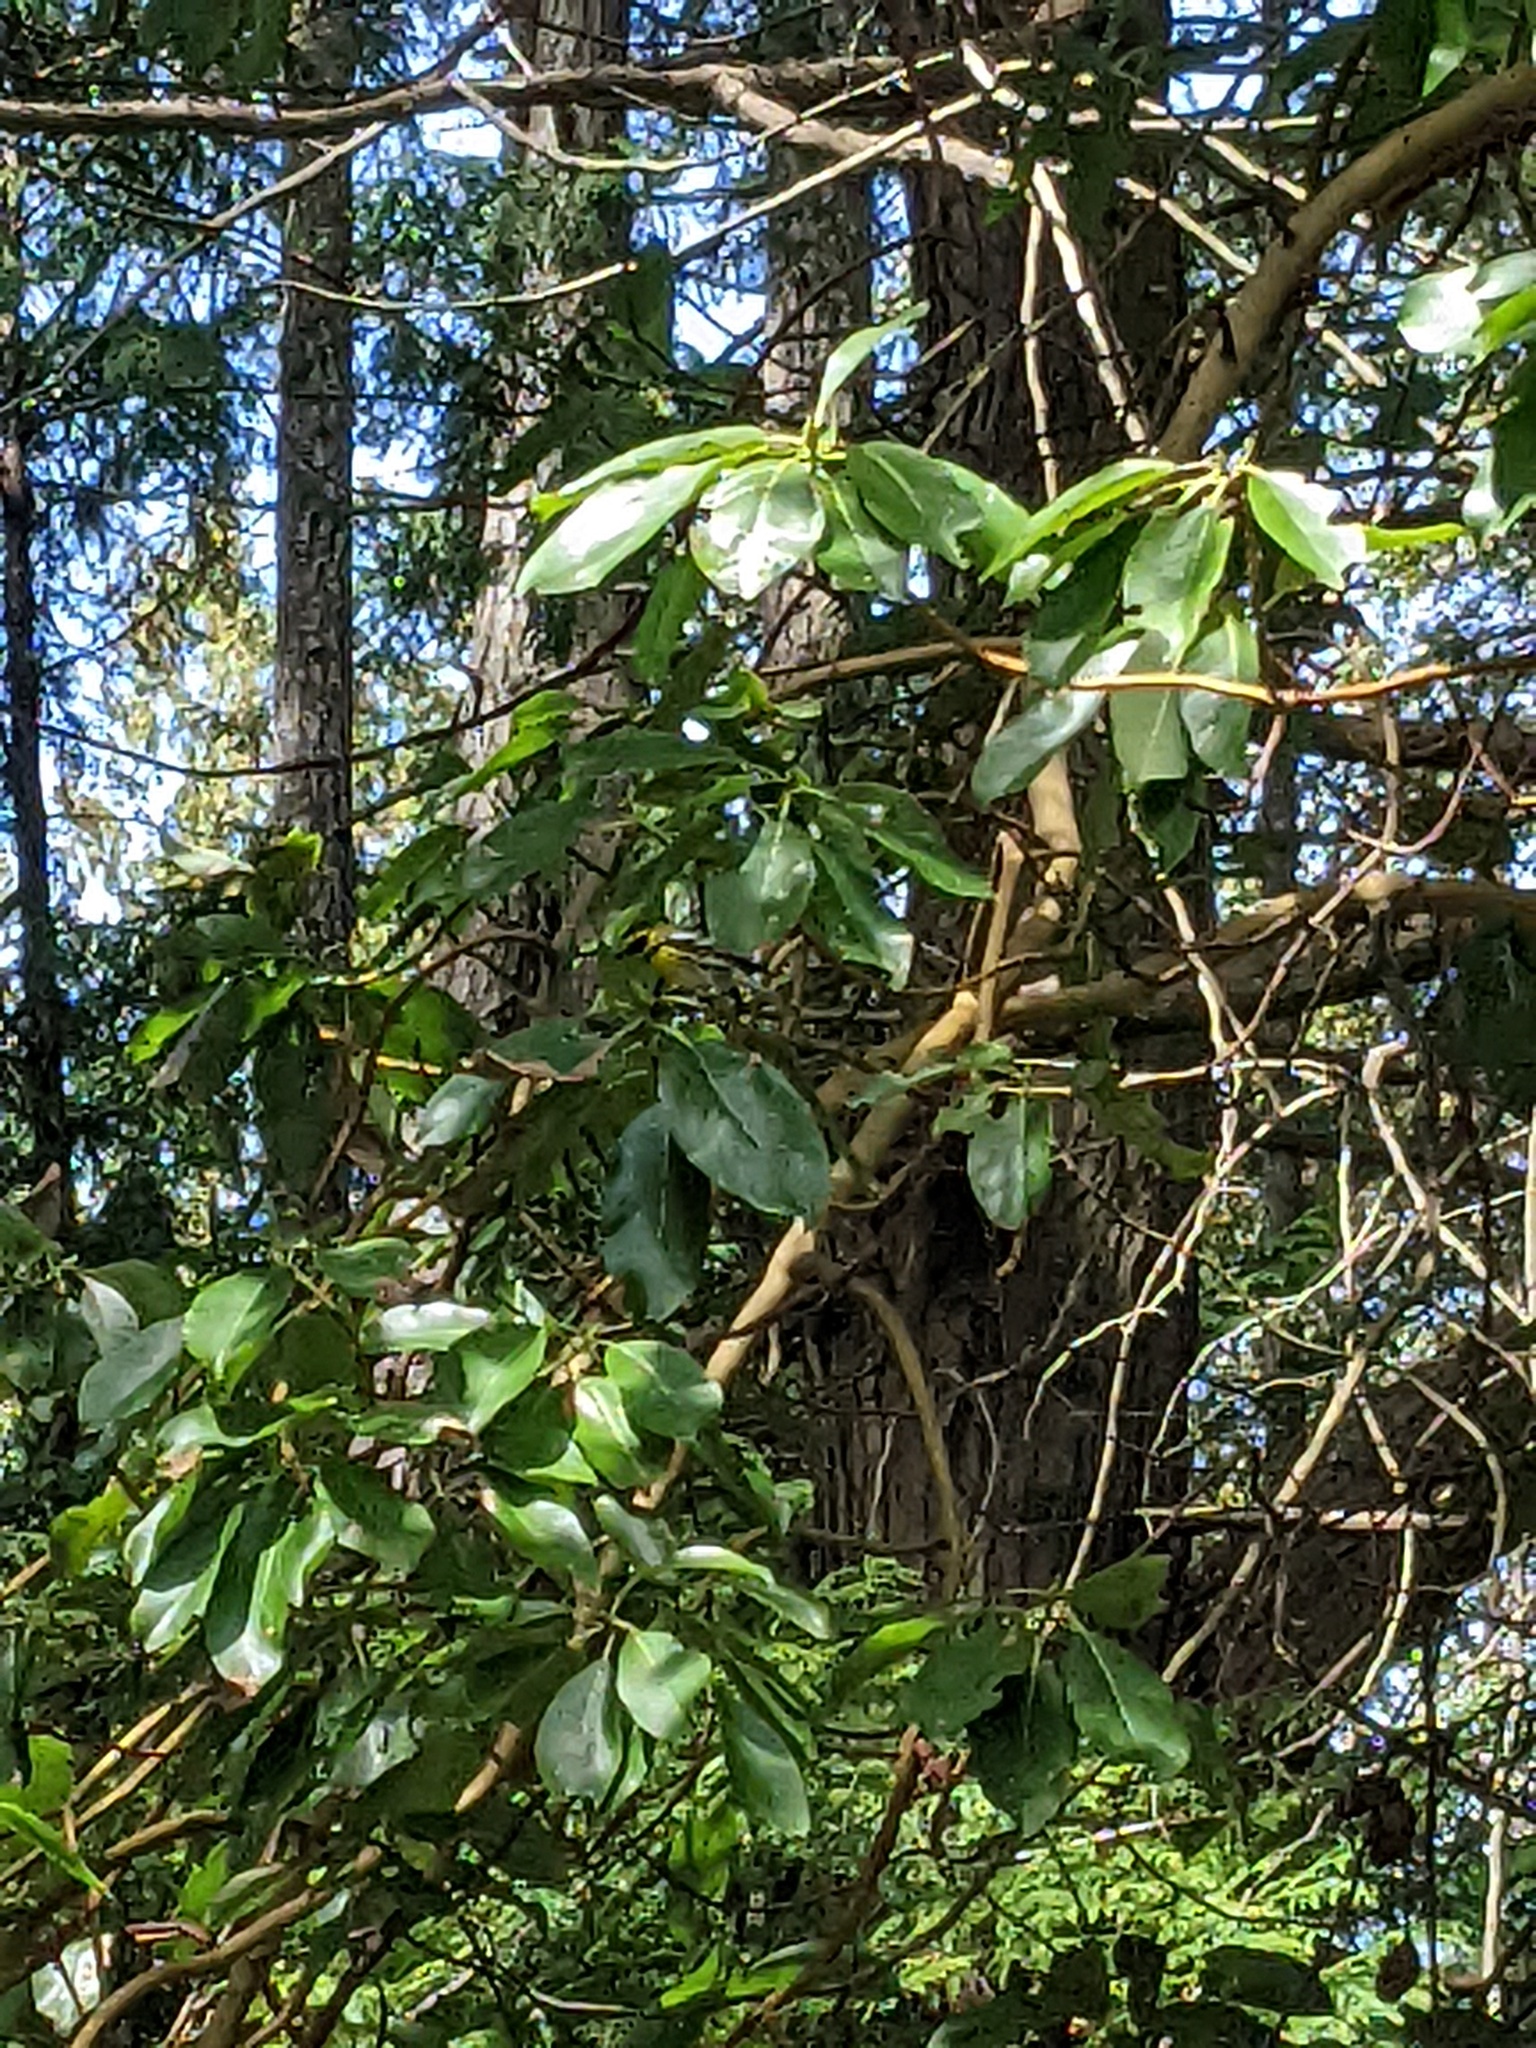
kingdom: Animalia
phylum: Chordata
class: Aves
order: Passeriformes
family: Parulidae
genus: Setophaga
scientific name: Setophaga townsendi
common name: Townsend's warbler
